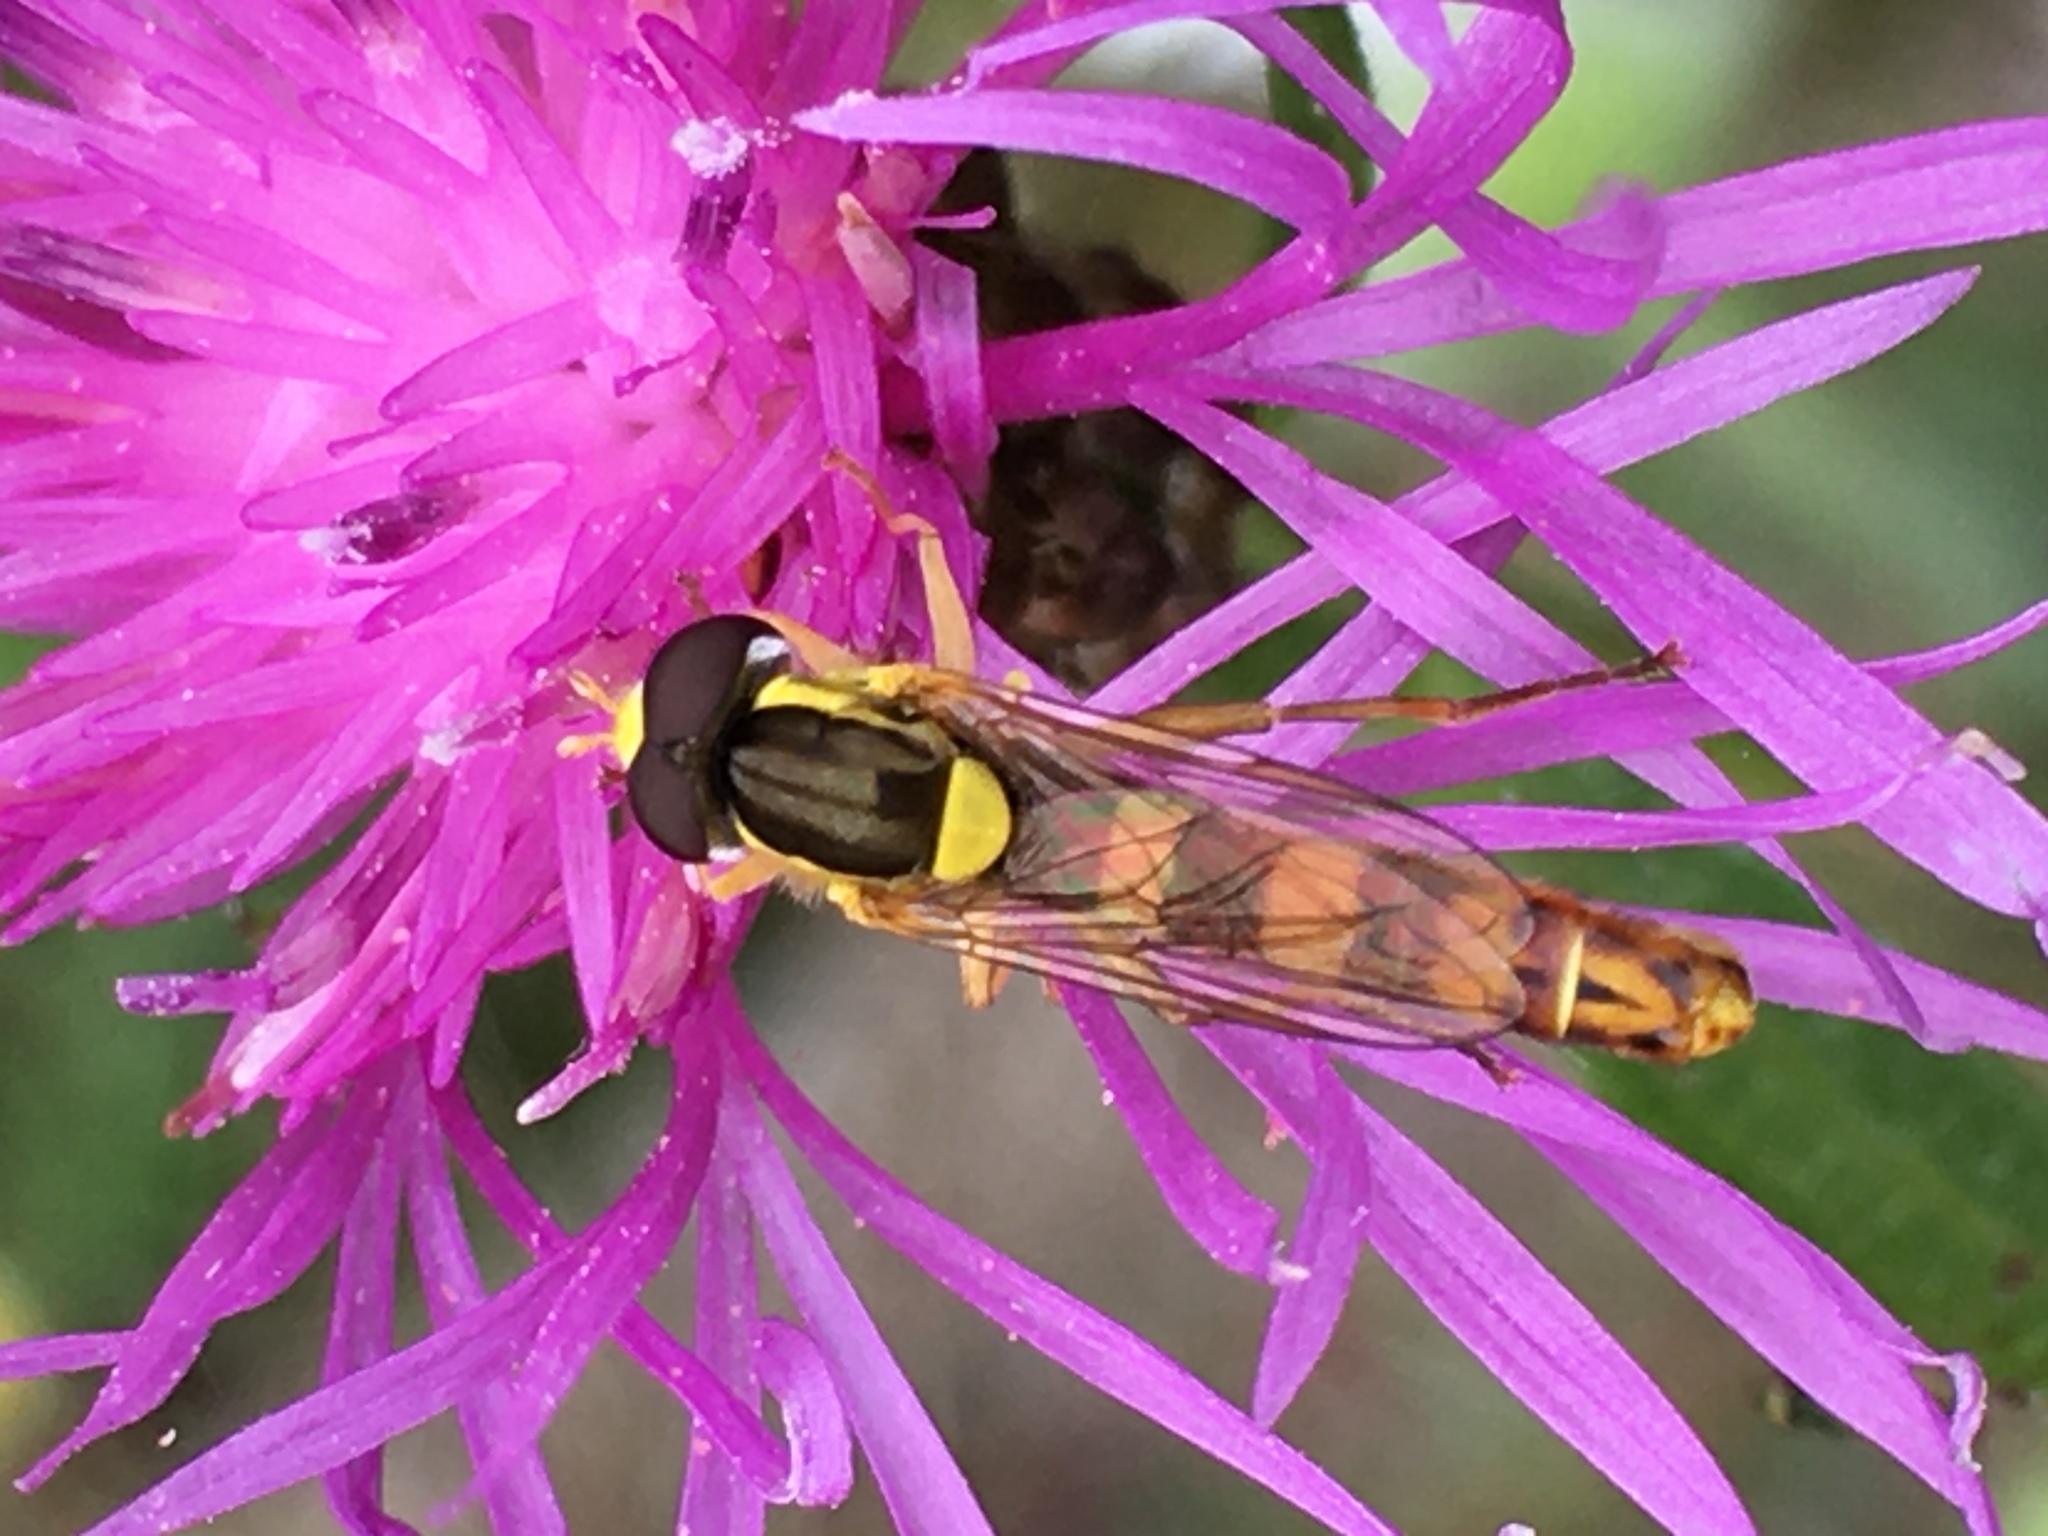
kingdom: Animalia
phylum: Arthropoda
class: Insecta
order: Diptera
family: Syrphidae
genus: Sphaerophoria
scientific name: Sphaerophoria scripta
